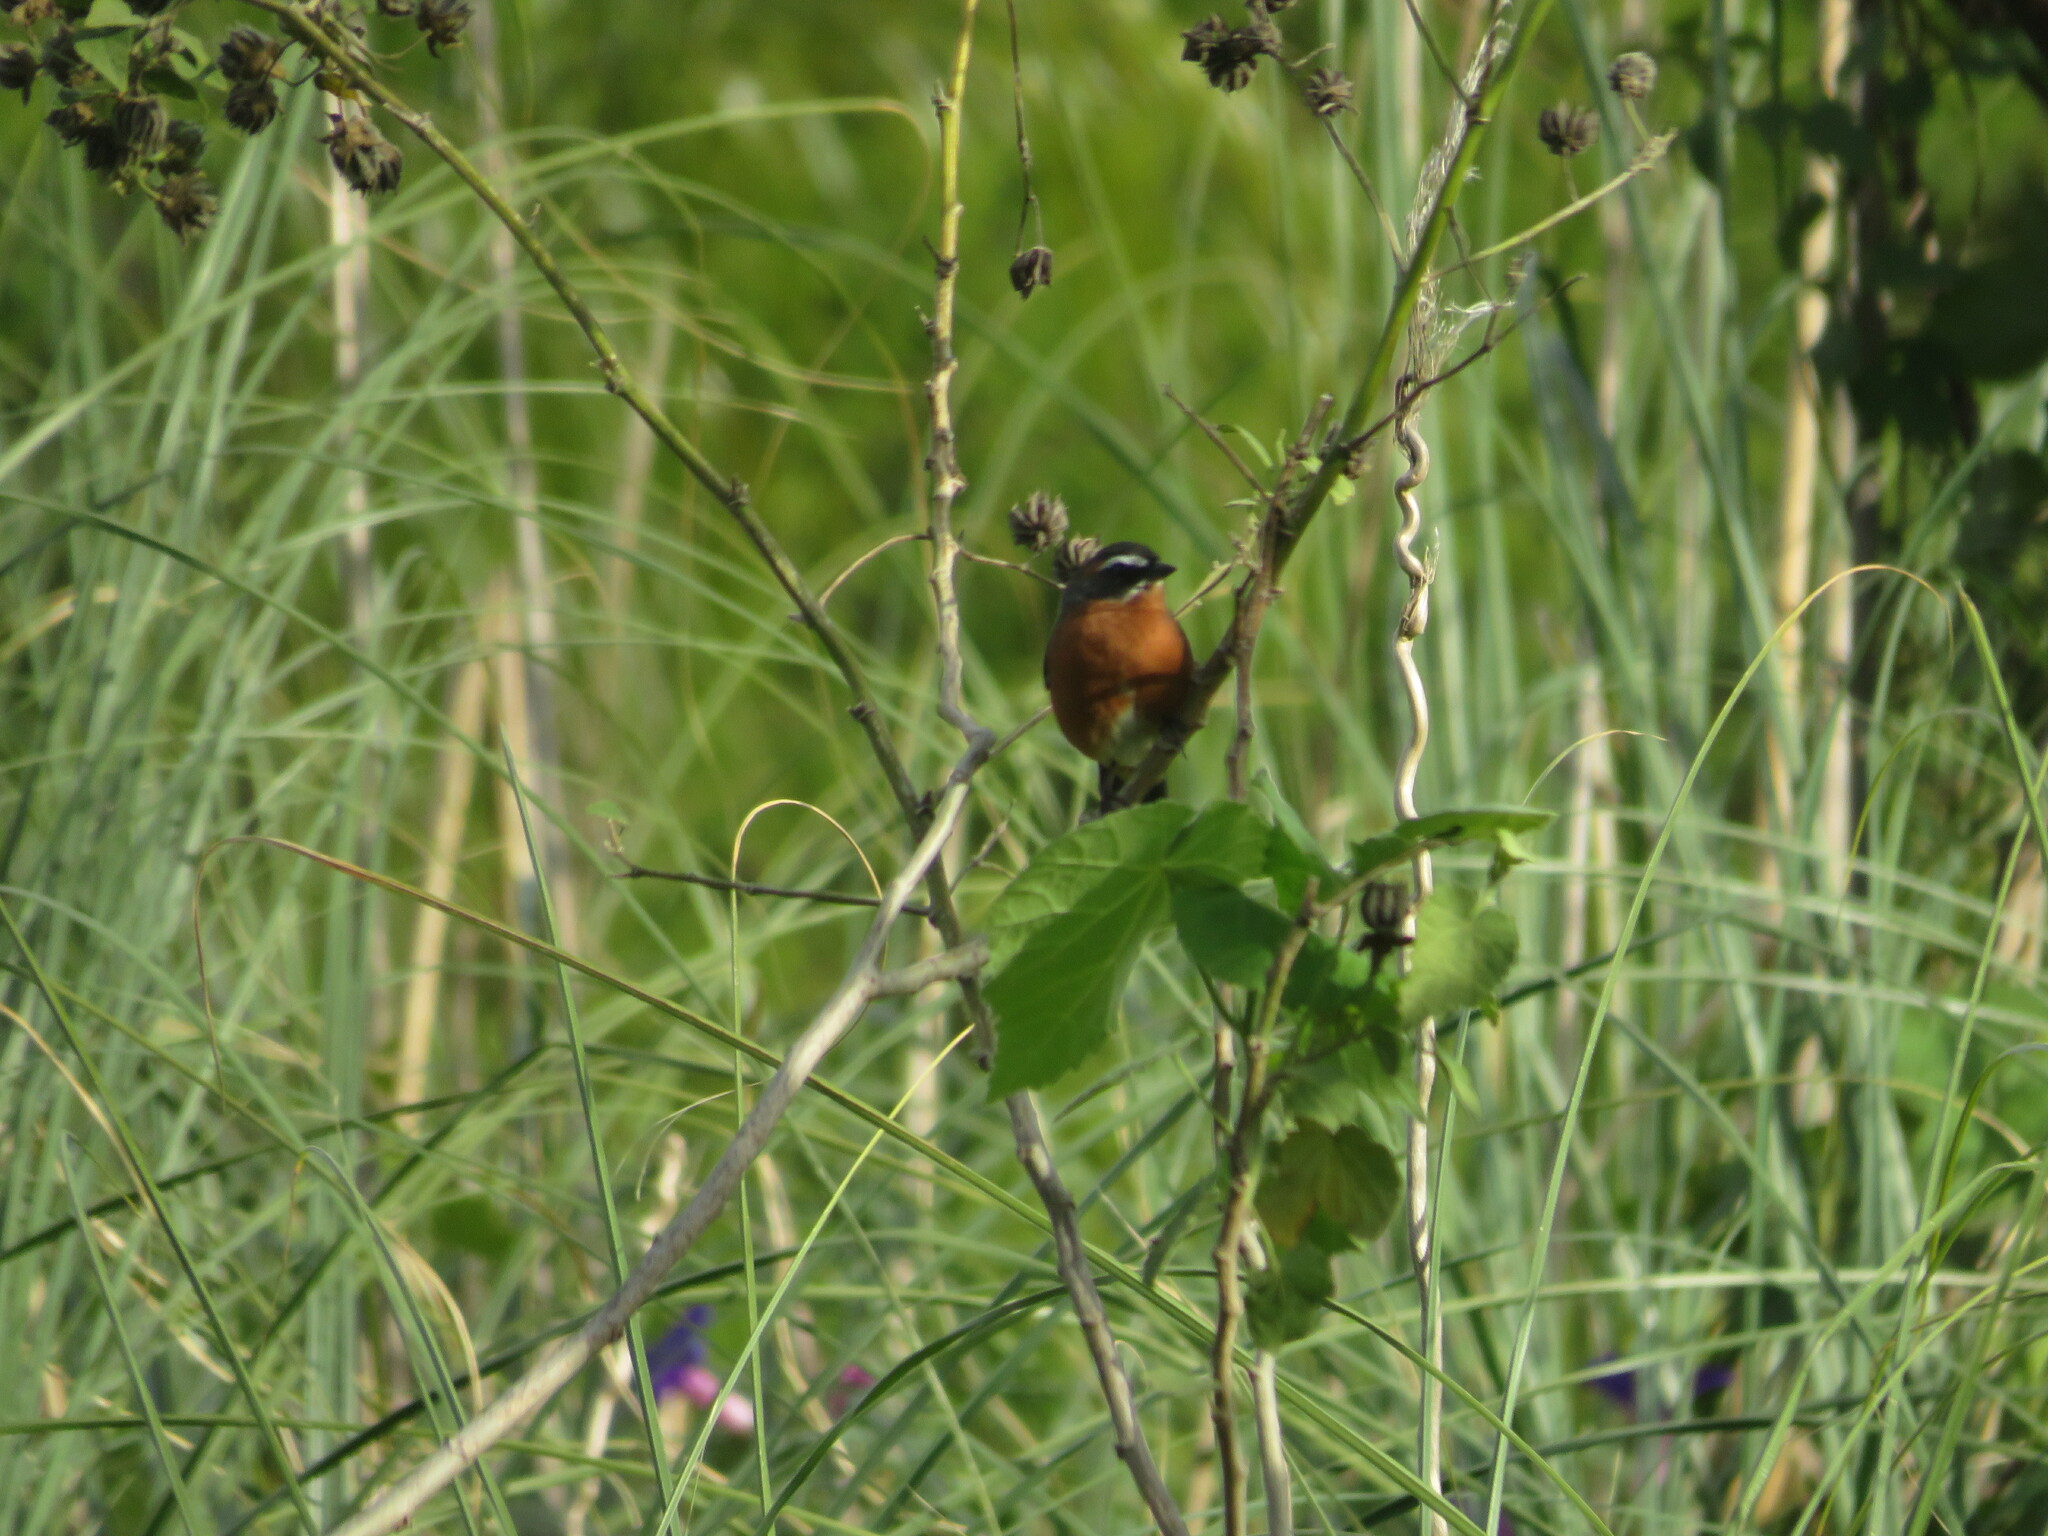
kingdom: Animalia
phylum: Chordata
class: Aves
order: Passeriformes
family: Thraupidae
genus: Poospiza
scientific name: Poospiza nigrorufa
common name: Black-and-rufous warbling finch
